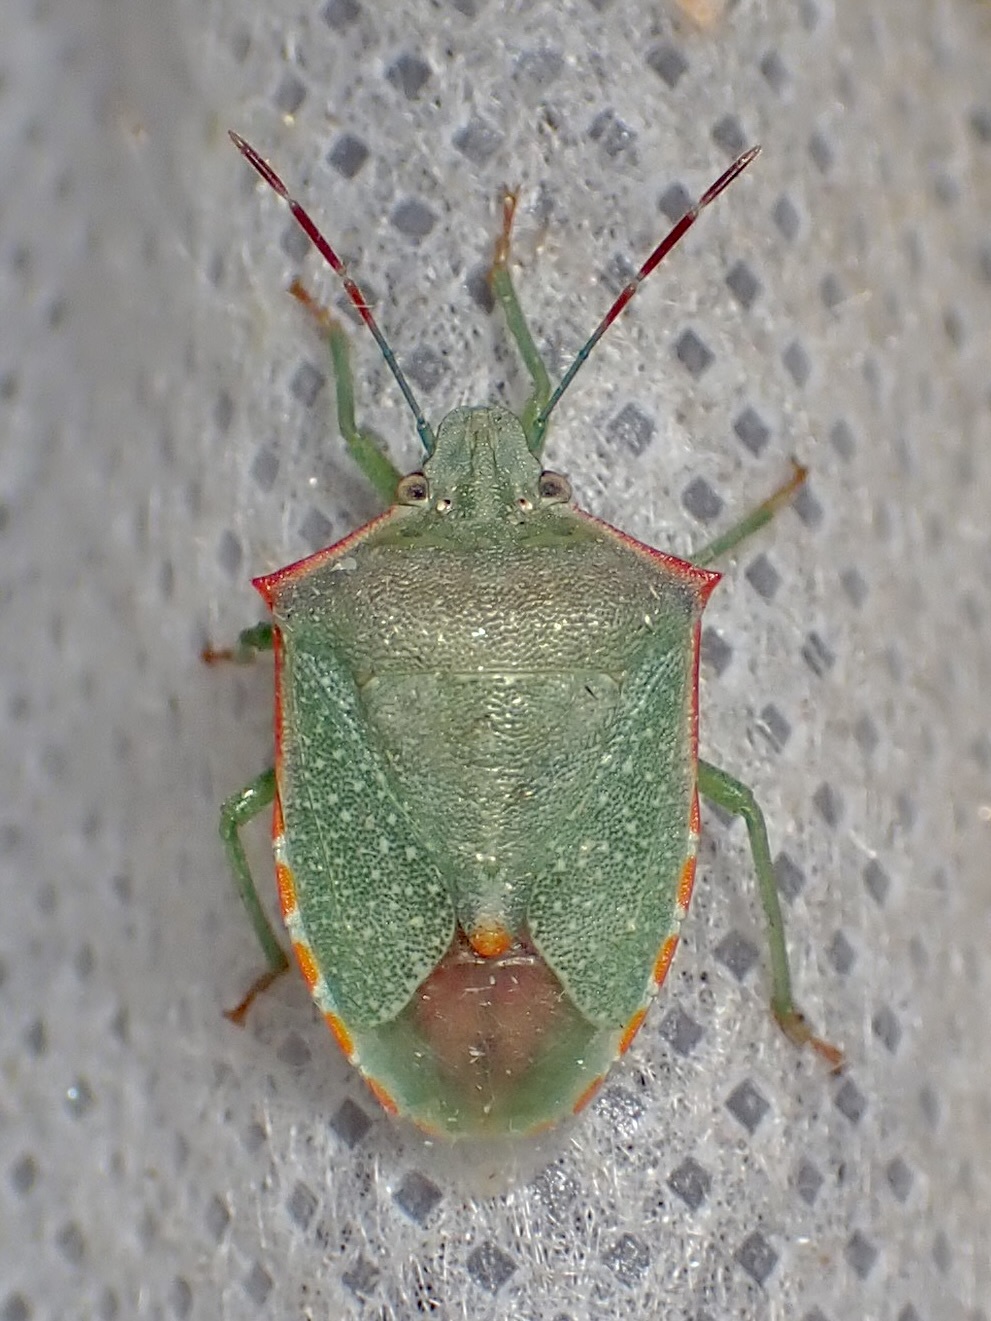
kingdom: Animalia
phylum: Arthropoda
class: Insecta
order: Hemiptera
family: Pentatomidae
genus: Thyanta
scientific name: Thyanta accerra
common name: Stink bug
